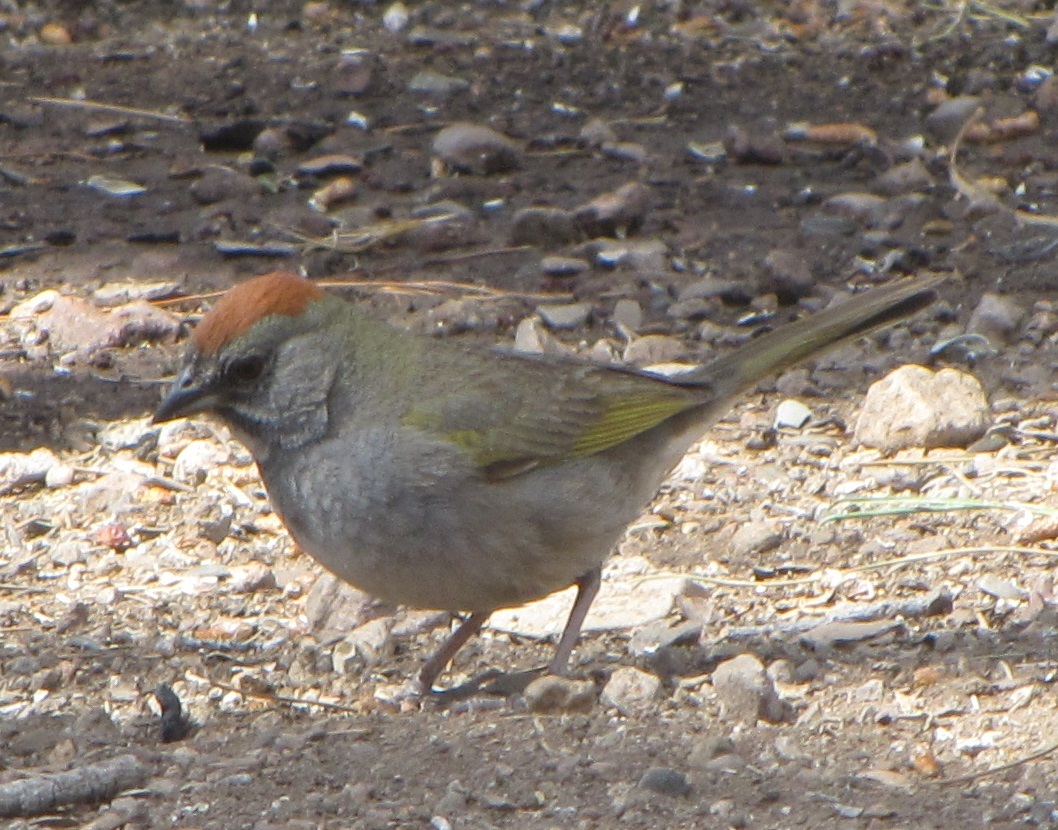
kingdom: Animalia
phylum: Chordata
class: Aves
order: Passeriformes
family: Passerellidae
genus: Pipilo
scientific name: Pipilo chlorurus
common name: Green-tailed towhee
